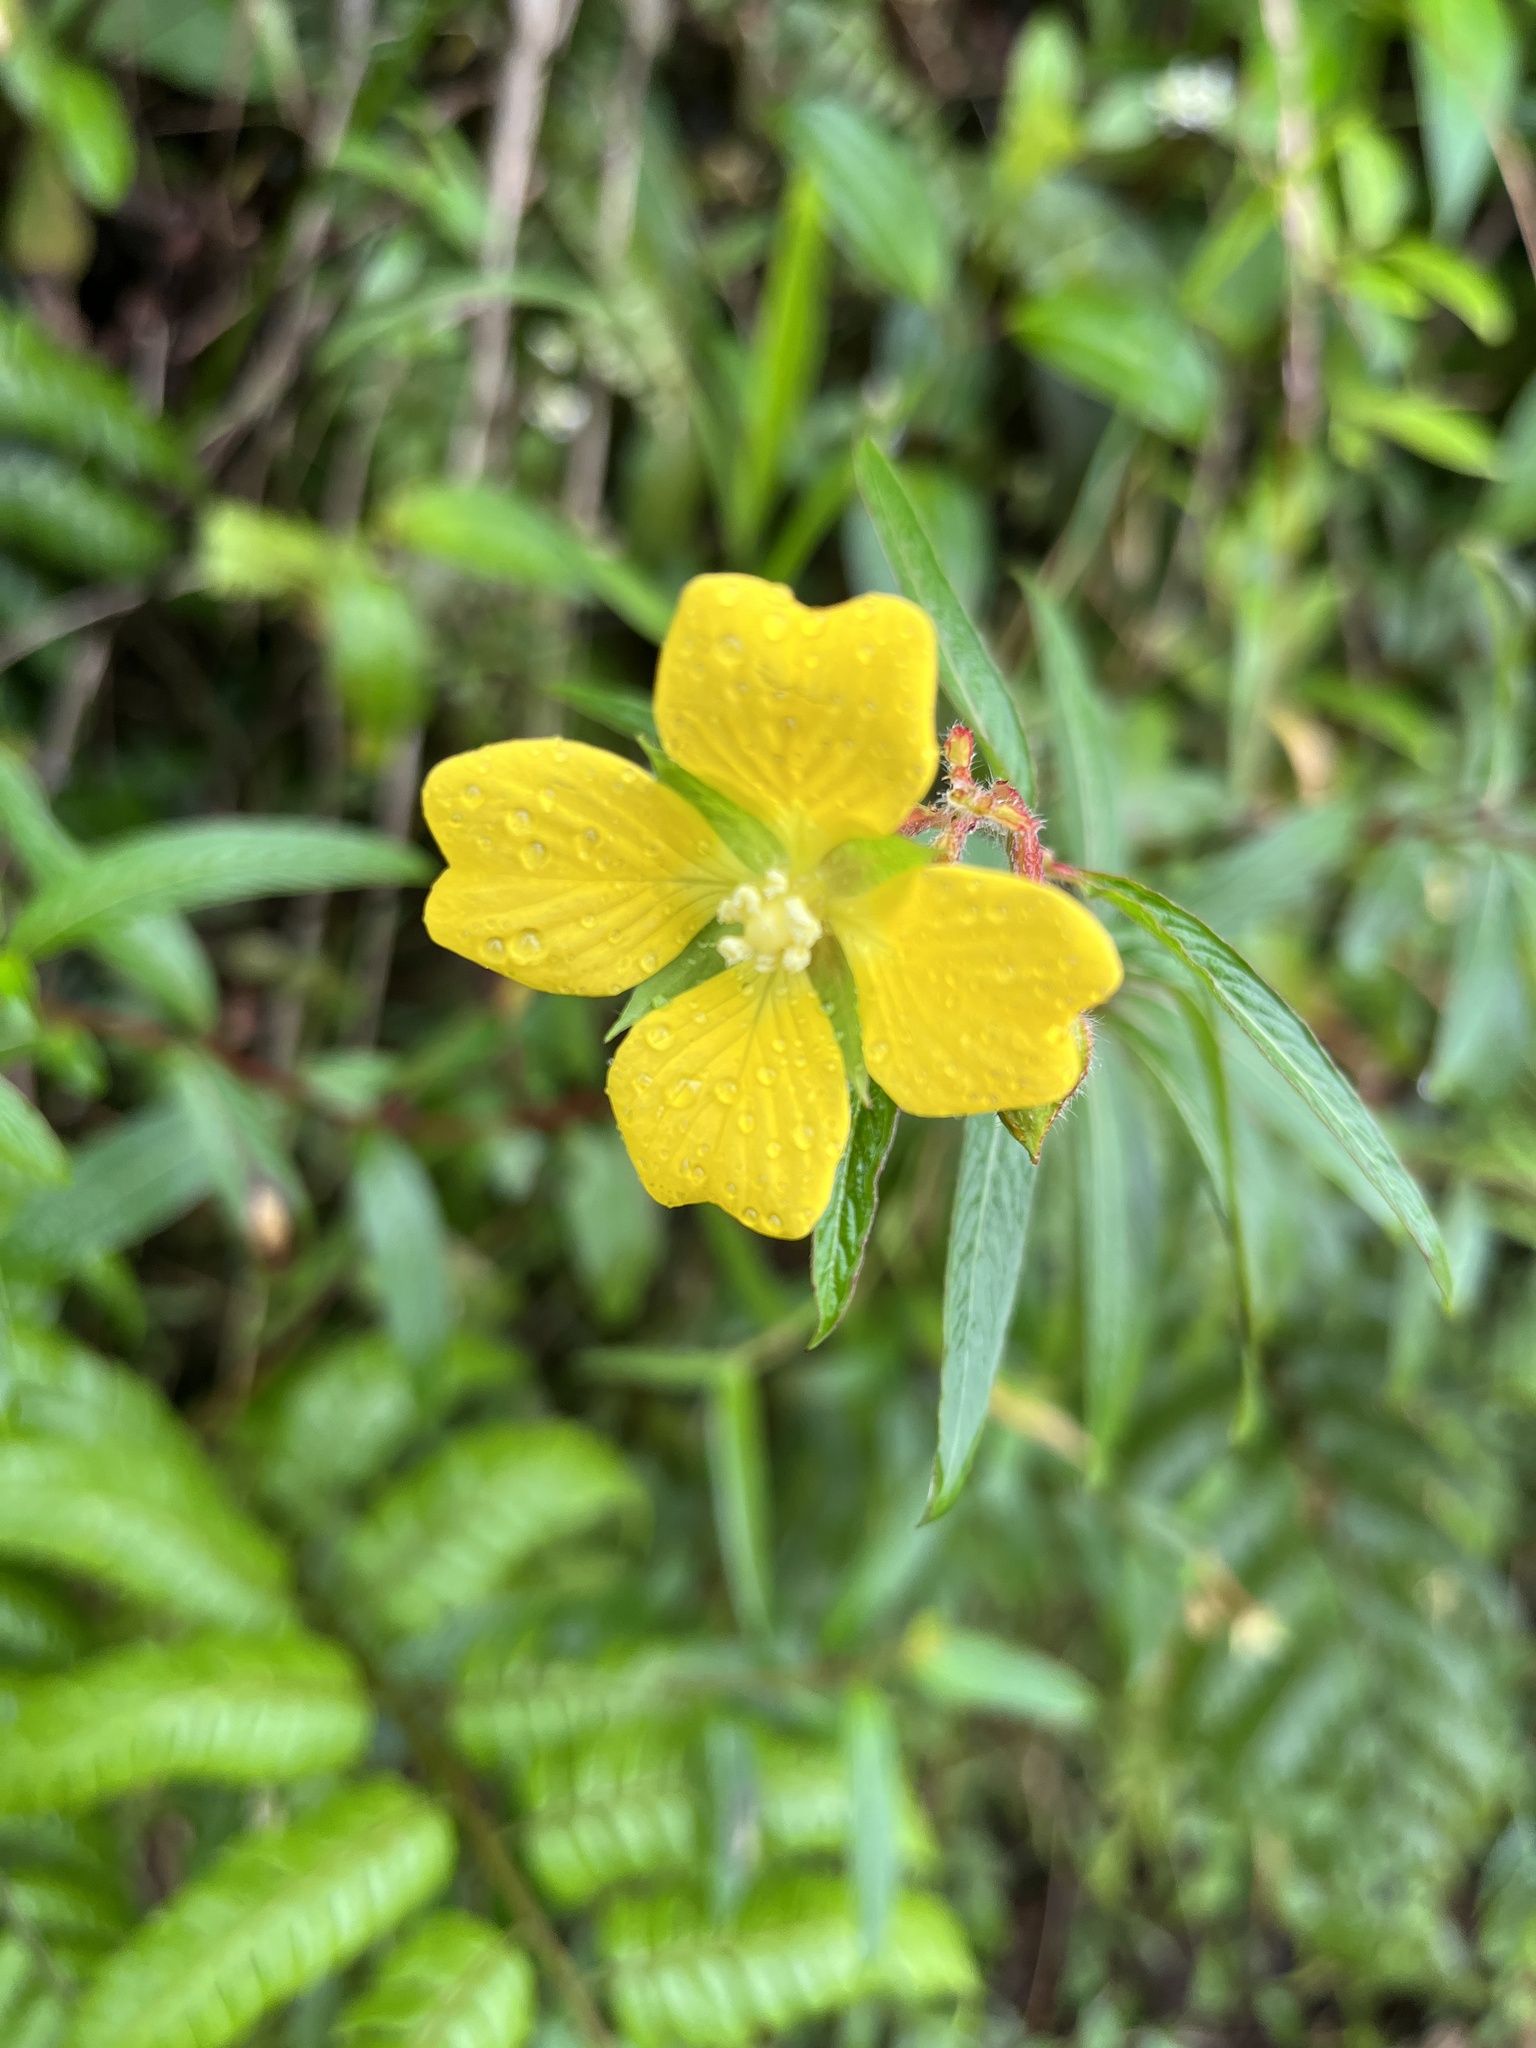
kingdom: Plantae
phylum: Tracheophyta
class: Magnoliopsida
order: Myrtales
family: Onagraceae
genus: Ludwigia
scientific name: Ludwigia octovalvis
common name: Water-primrose
